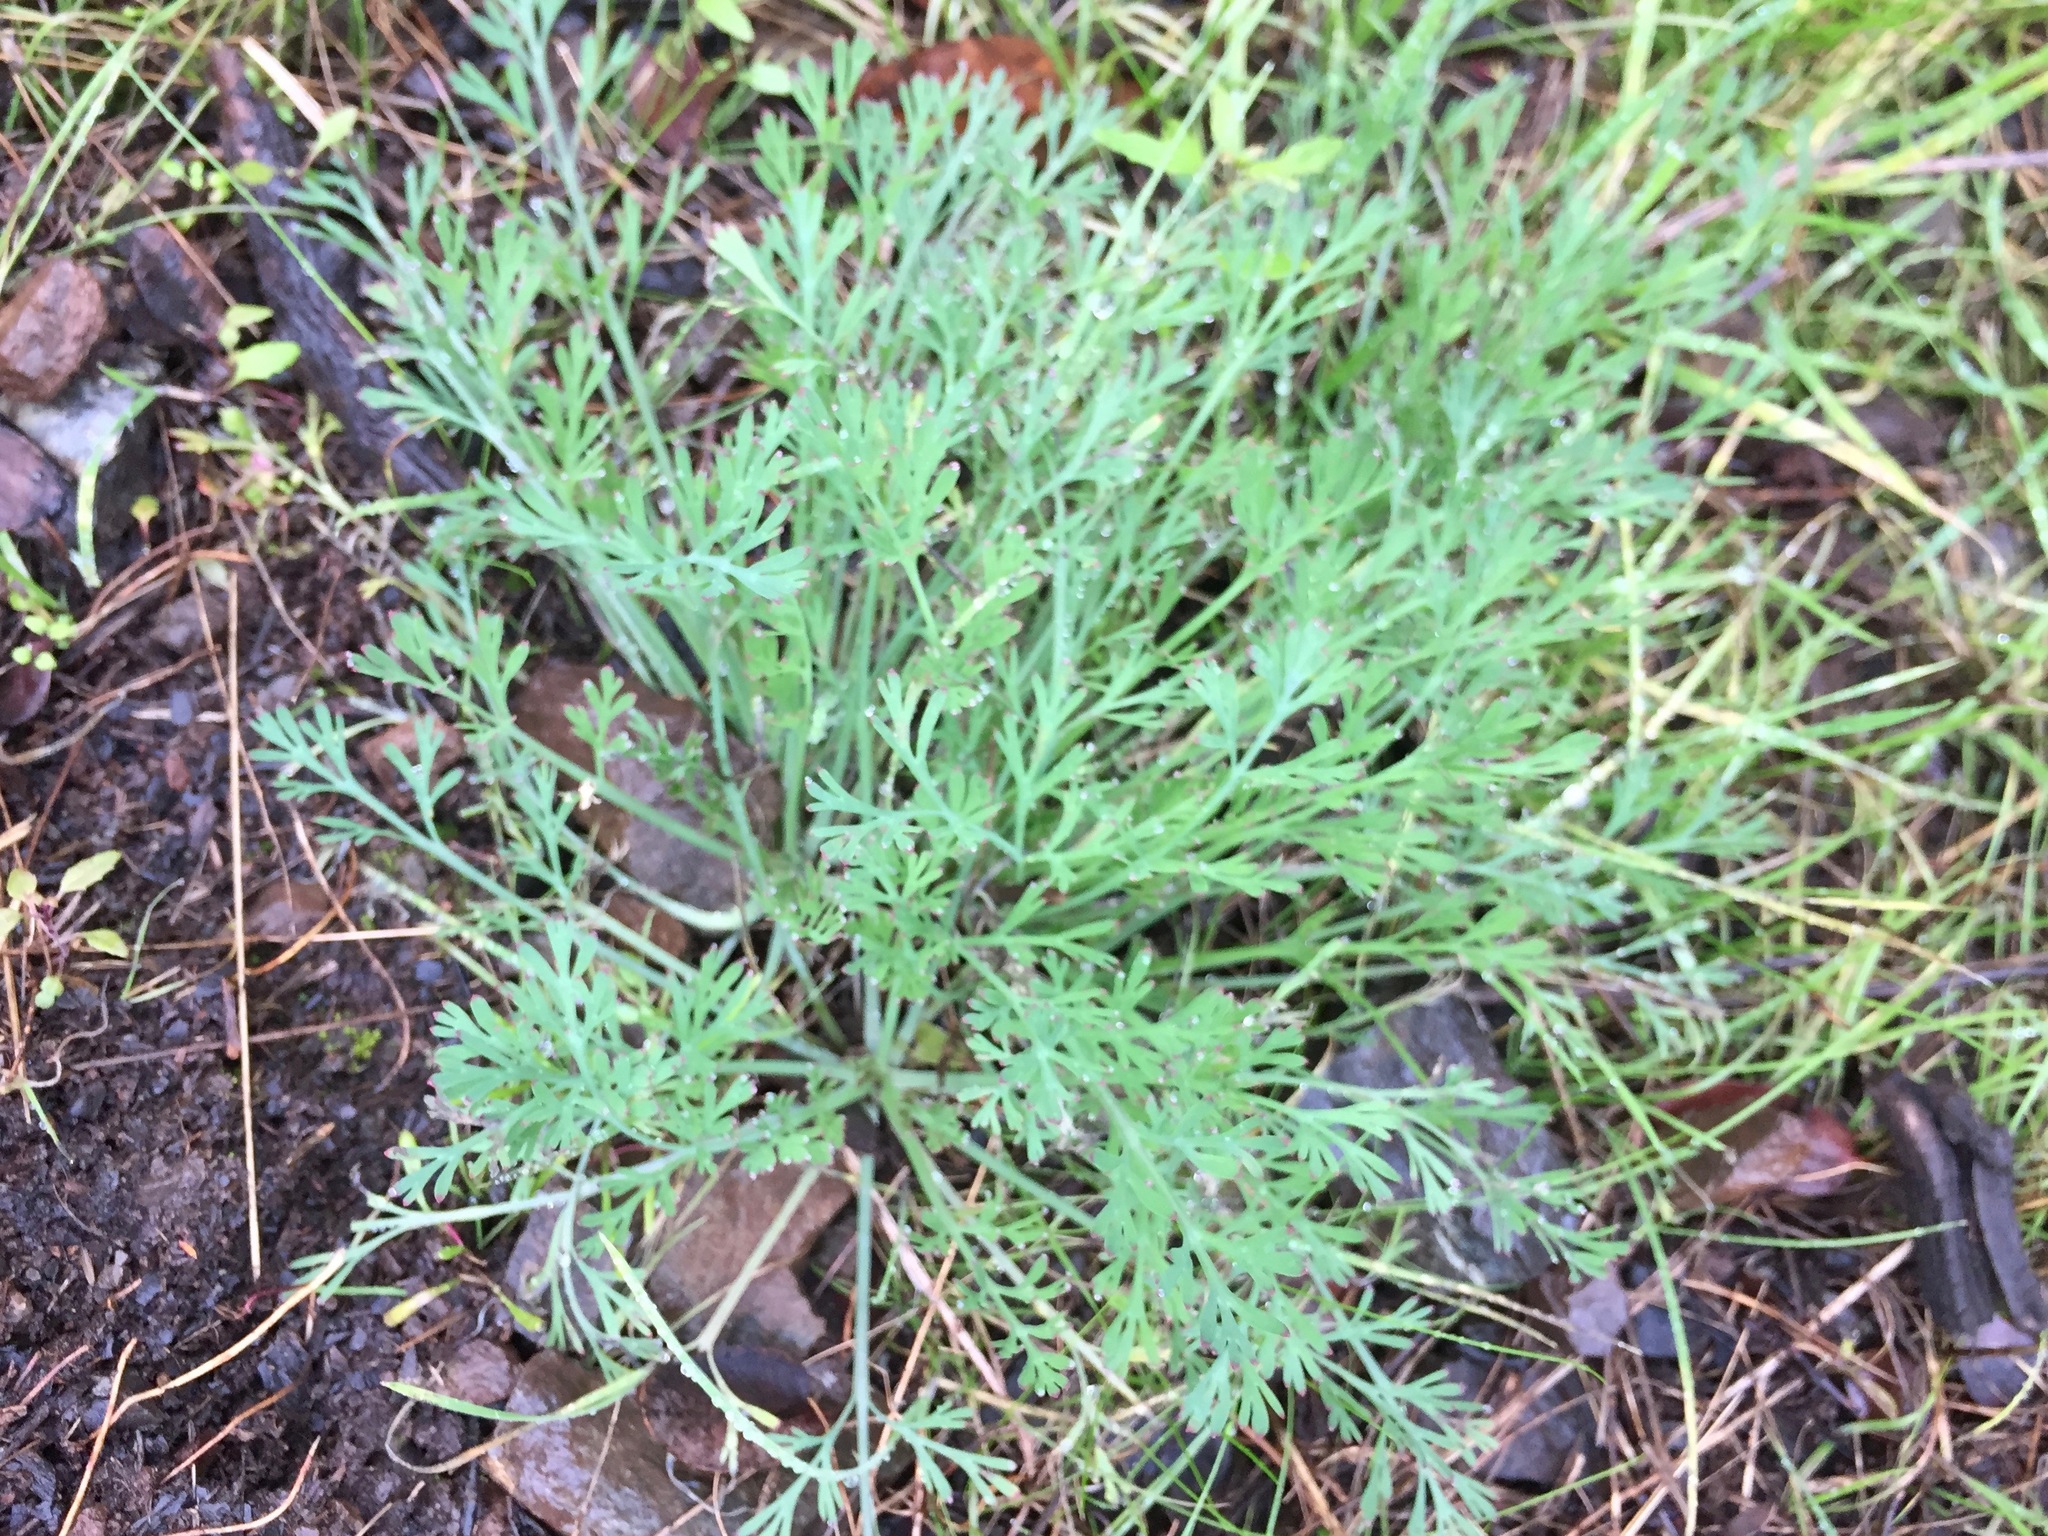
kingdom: Plantae
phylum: Tracheophyta
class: Magnoliopsida
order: Ranunculales
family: Papaveraceae
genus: Eschscholzia
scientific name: Eschscholzia californica
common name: California poppy
